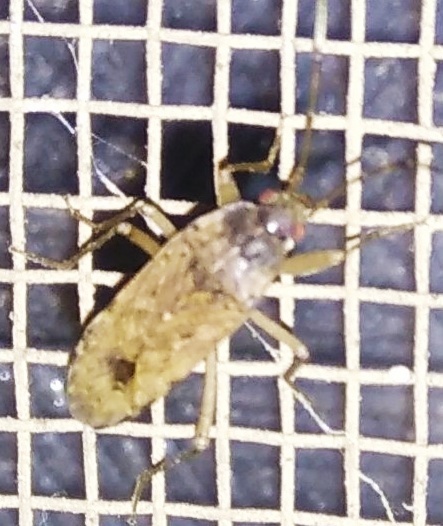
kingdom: Animalia
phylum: Arthropoda
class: Insecta
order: Hemiptera
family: Rhyparochromidae
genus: Elasmolomus
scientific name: Elasmolomus pallens
